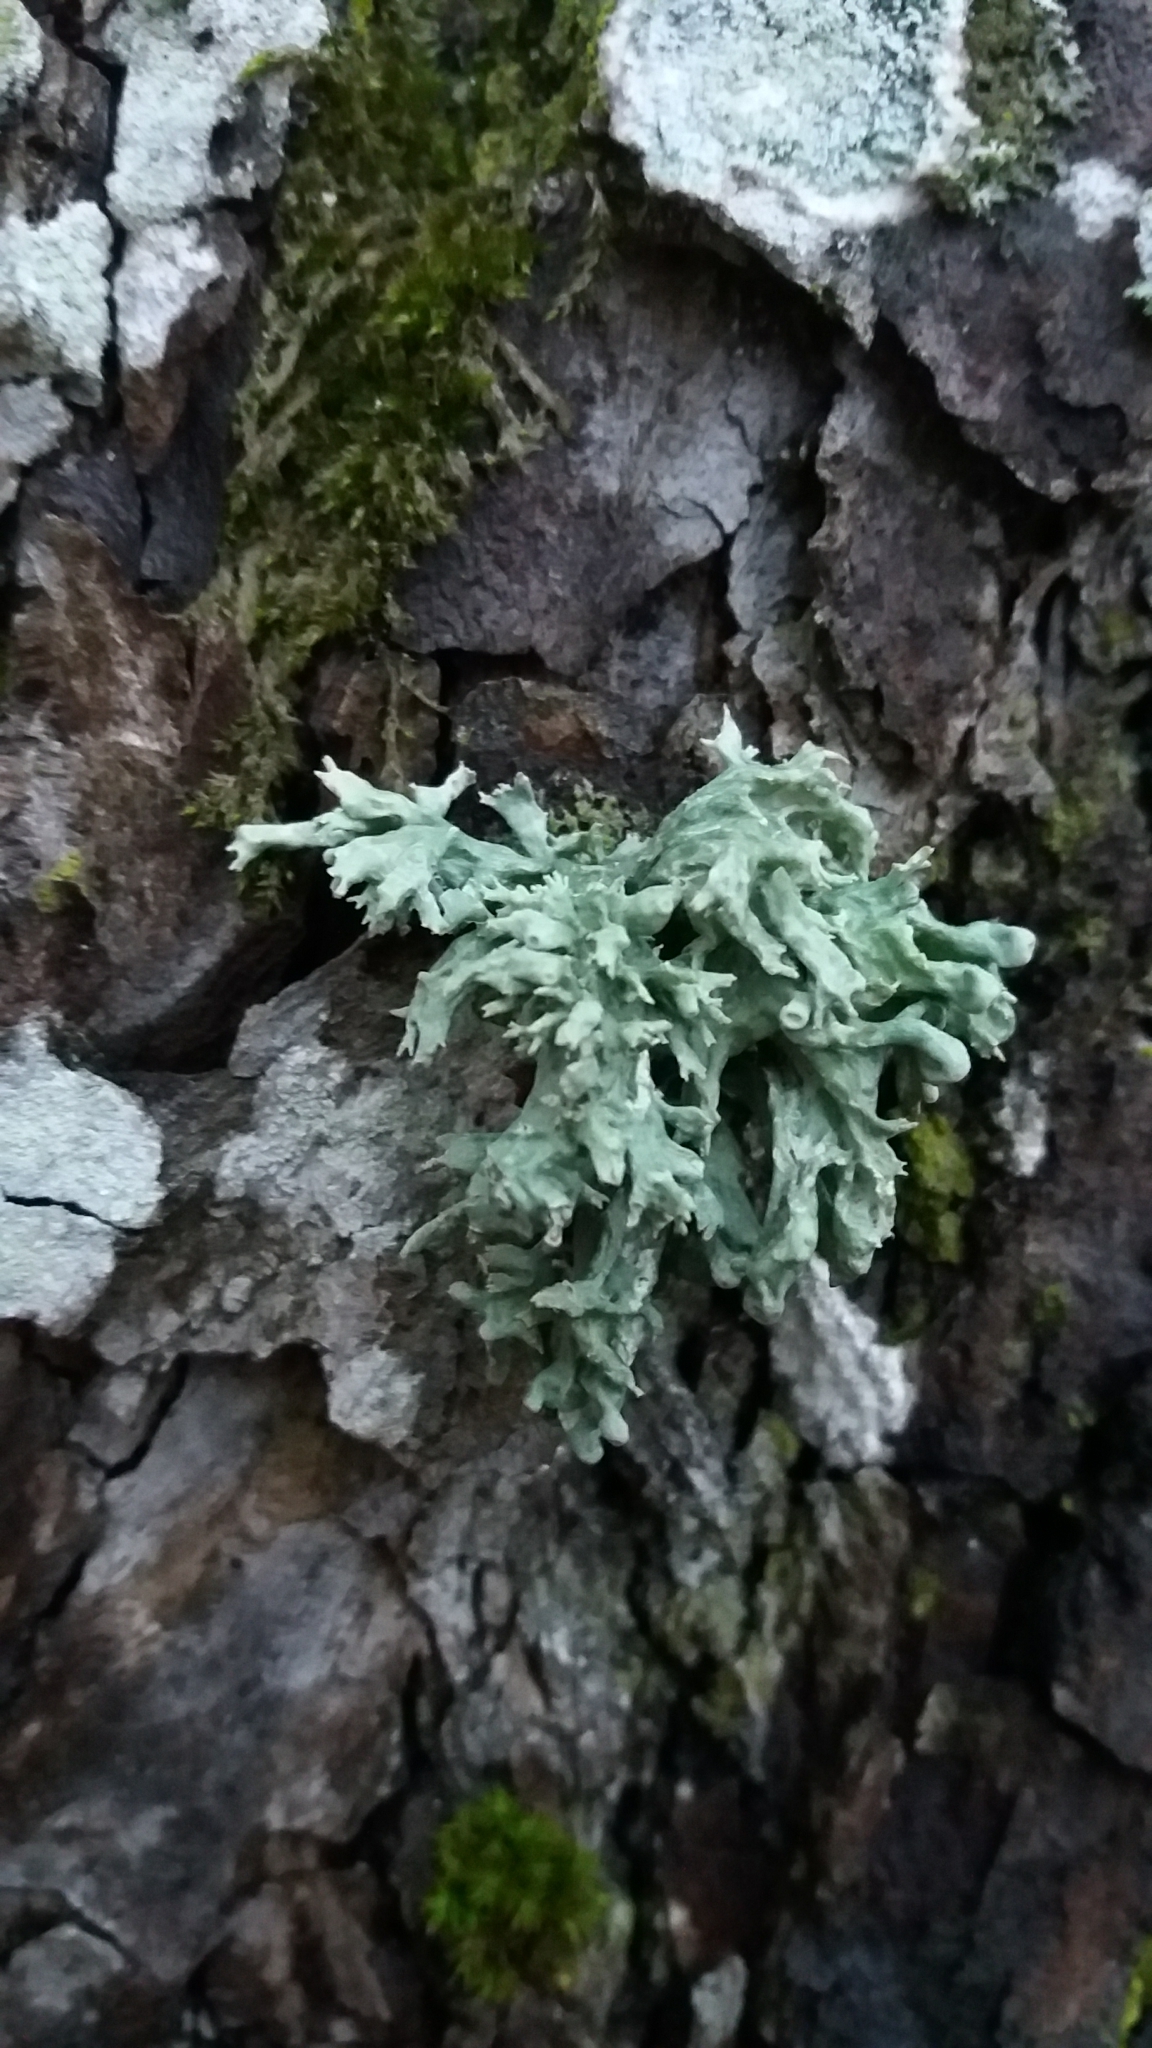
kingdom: Fungi
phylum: Ascomycota
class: Lecanoromycetes
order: Lecanorales
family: Ramalinaceae
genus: Ramalina
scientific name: Ramalina fastigiata
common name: Dotted ribbon lichen
